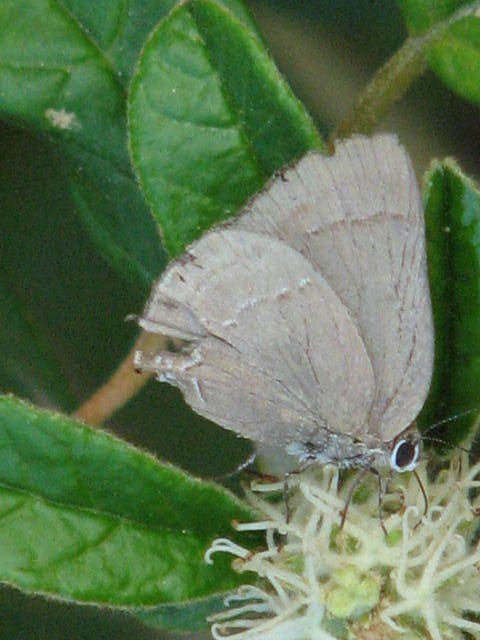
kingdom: Animalia
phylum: Arthropoda
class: Insecta
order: Lepidoptera
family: Lycaenidae
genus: Thecla
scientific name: Thecla strophius
